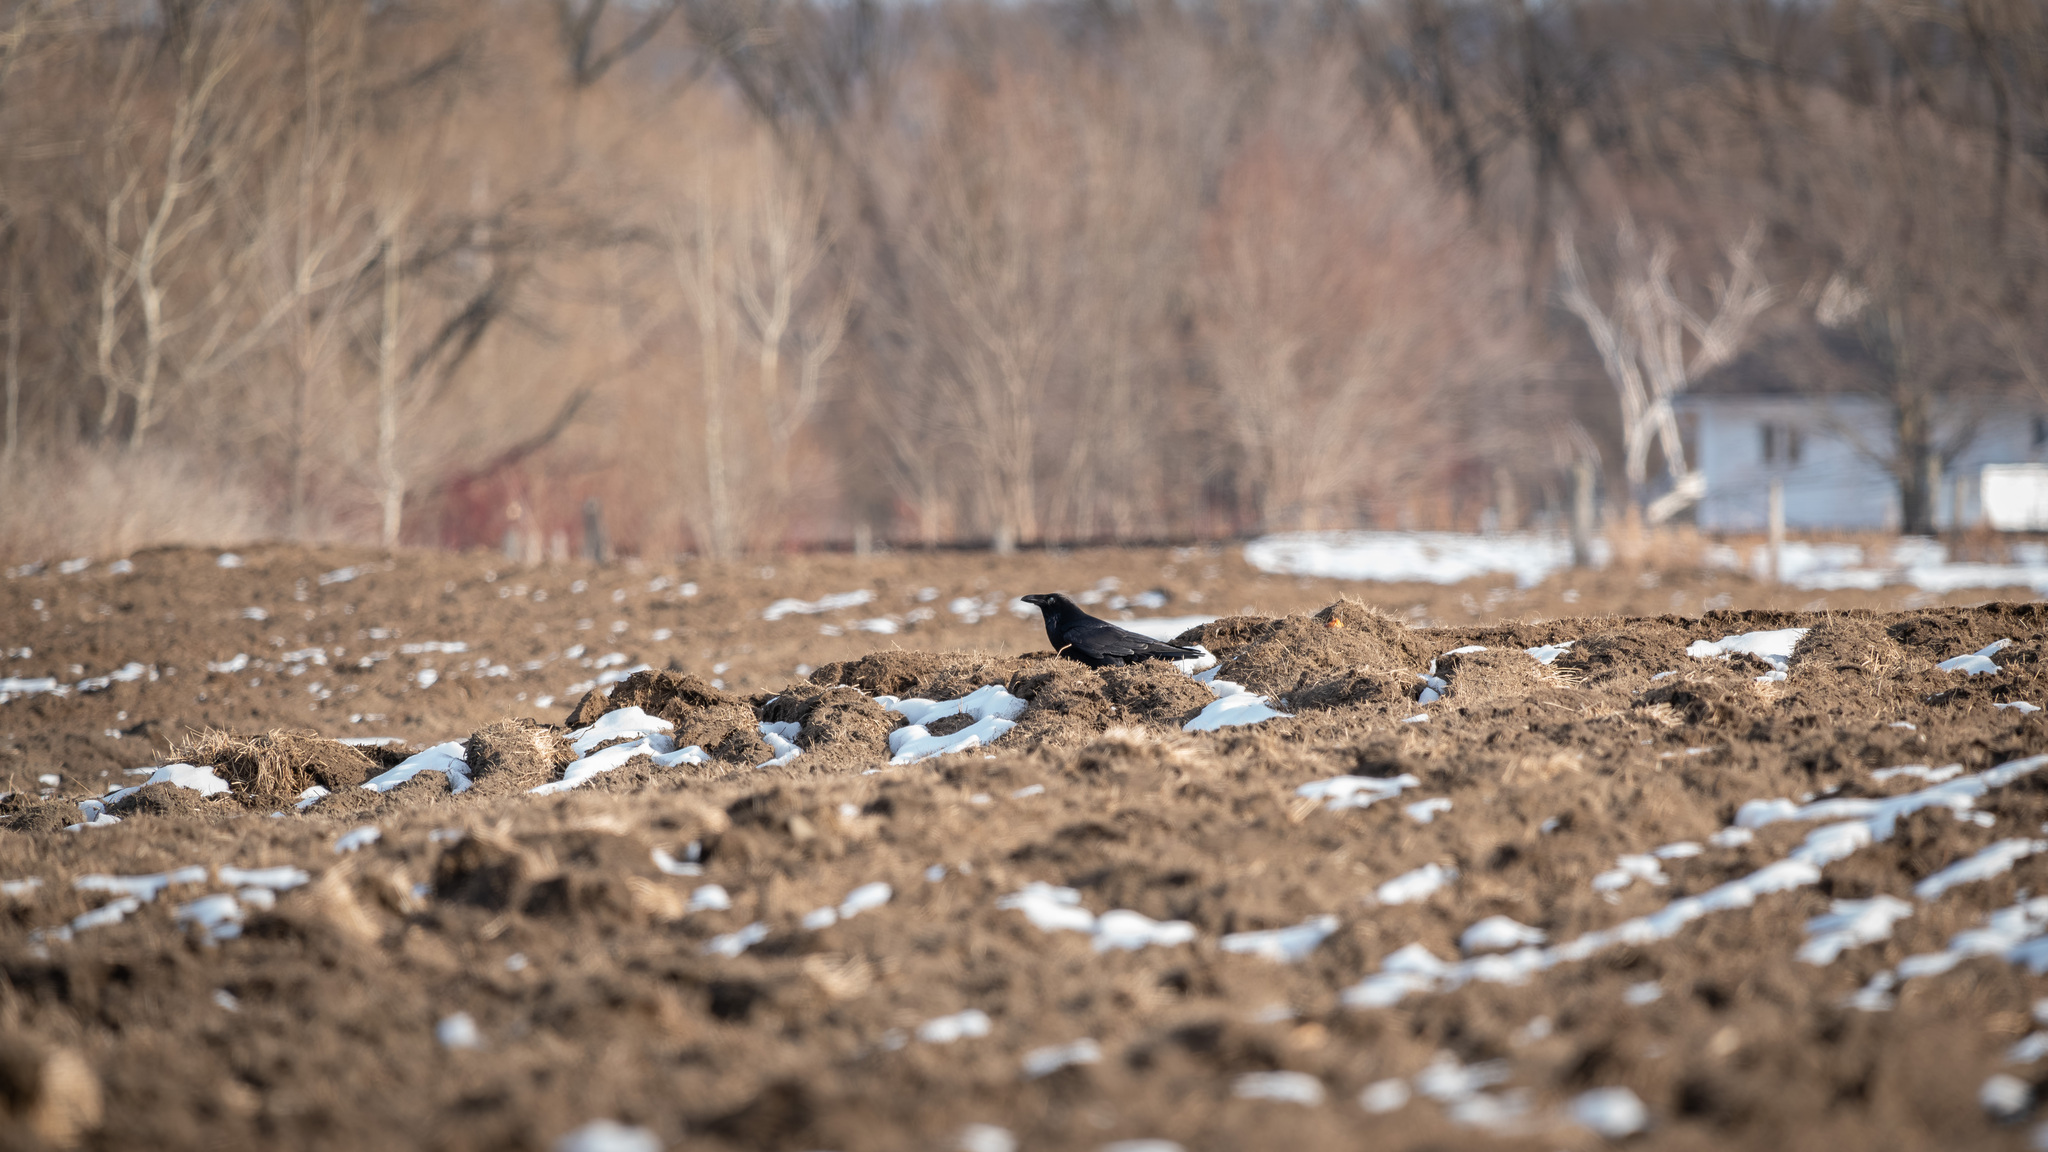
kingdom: Animalia
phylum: Chordata
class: Aves
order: Passeriformes
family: Corvidae
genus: Corvus
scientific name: Corvus brachyrhynchos
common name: American crow
